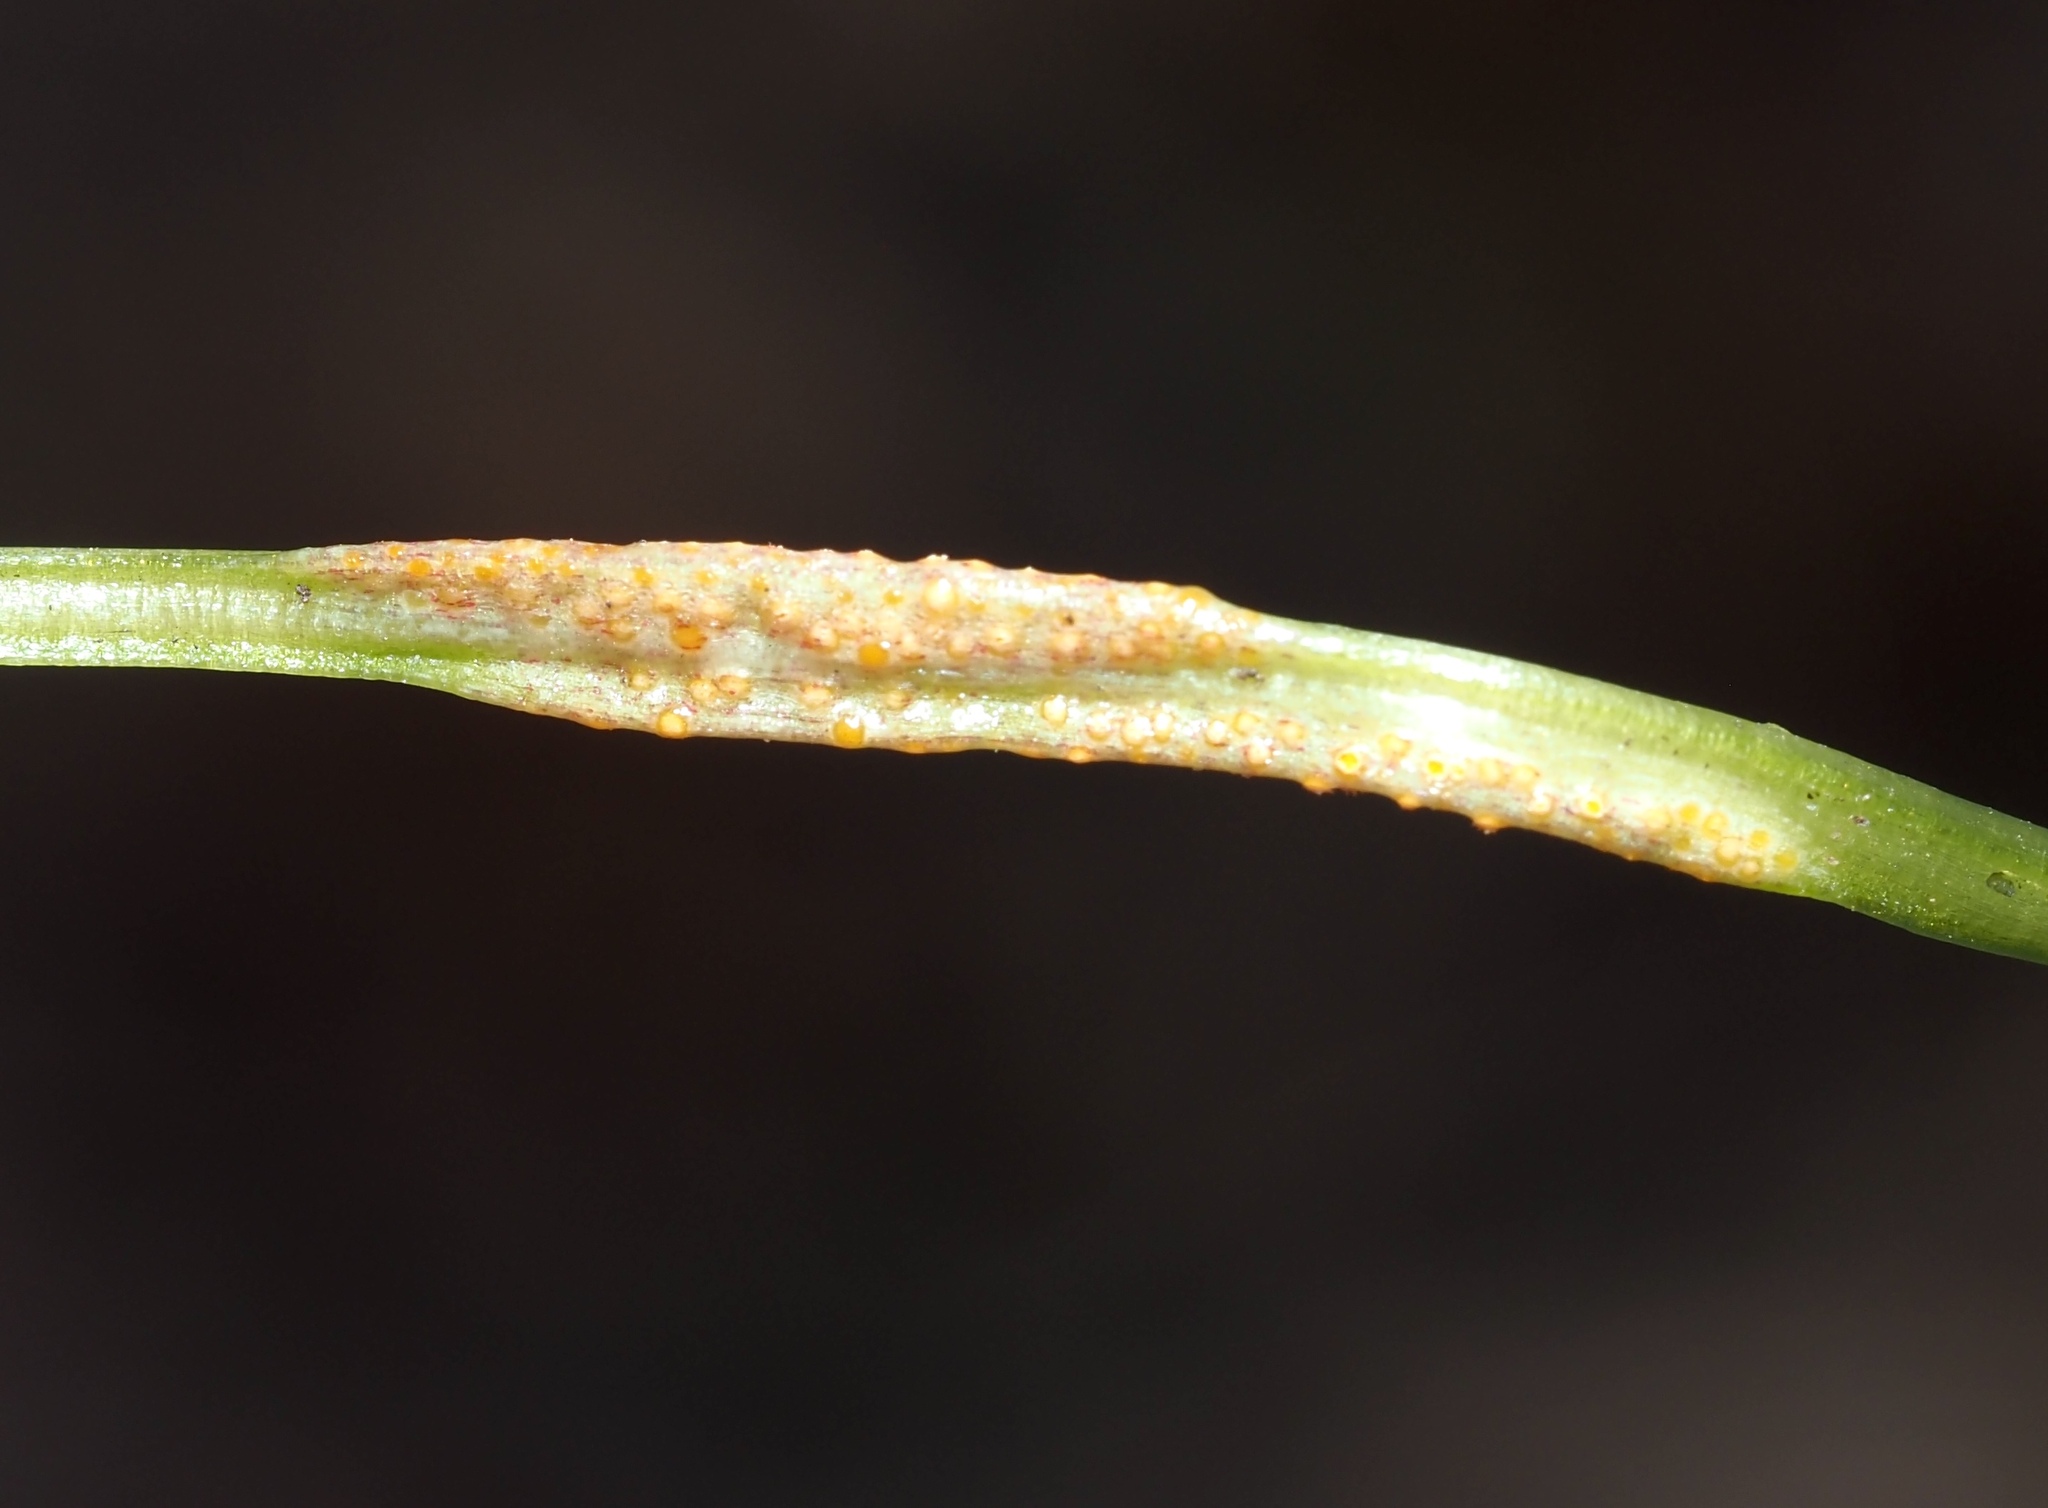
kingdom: Fungi
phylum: Basidiomycota
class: Pucciniomycetes
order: Pucciniales
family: Pucciniaceae
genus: Puccinia
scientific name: Puccinia violae
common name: Violet rust
